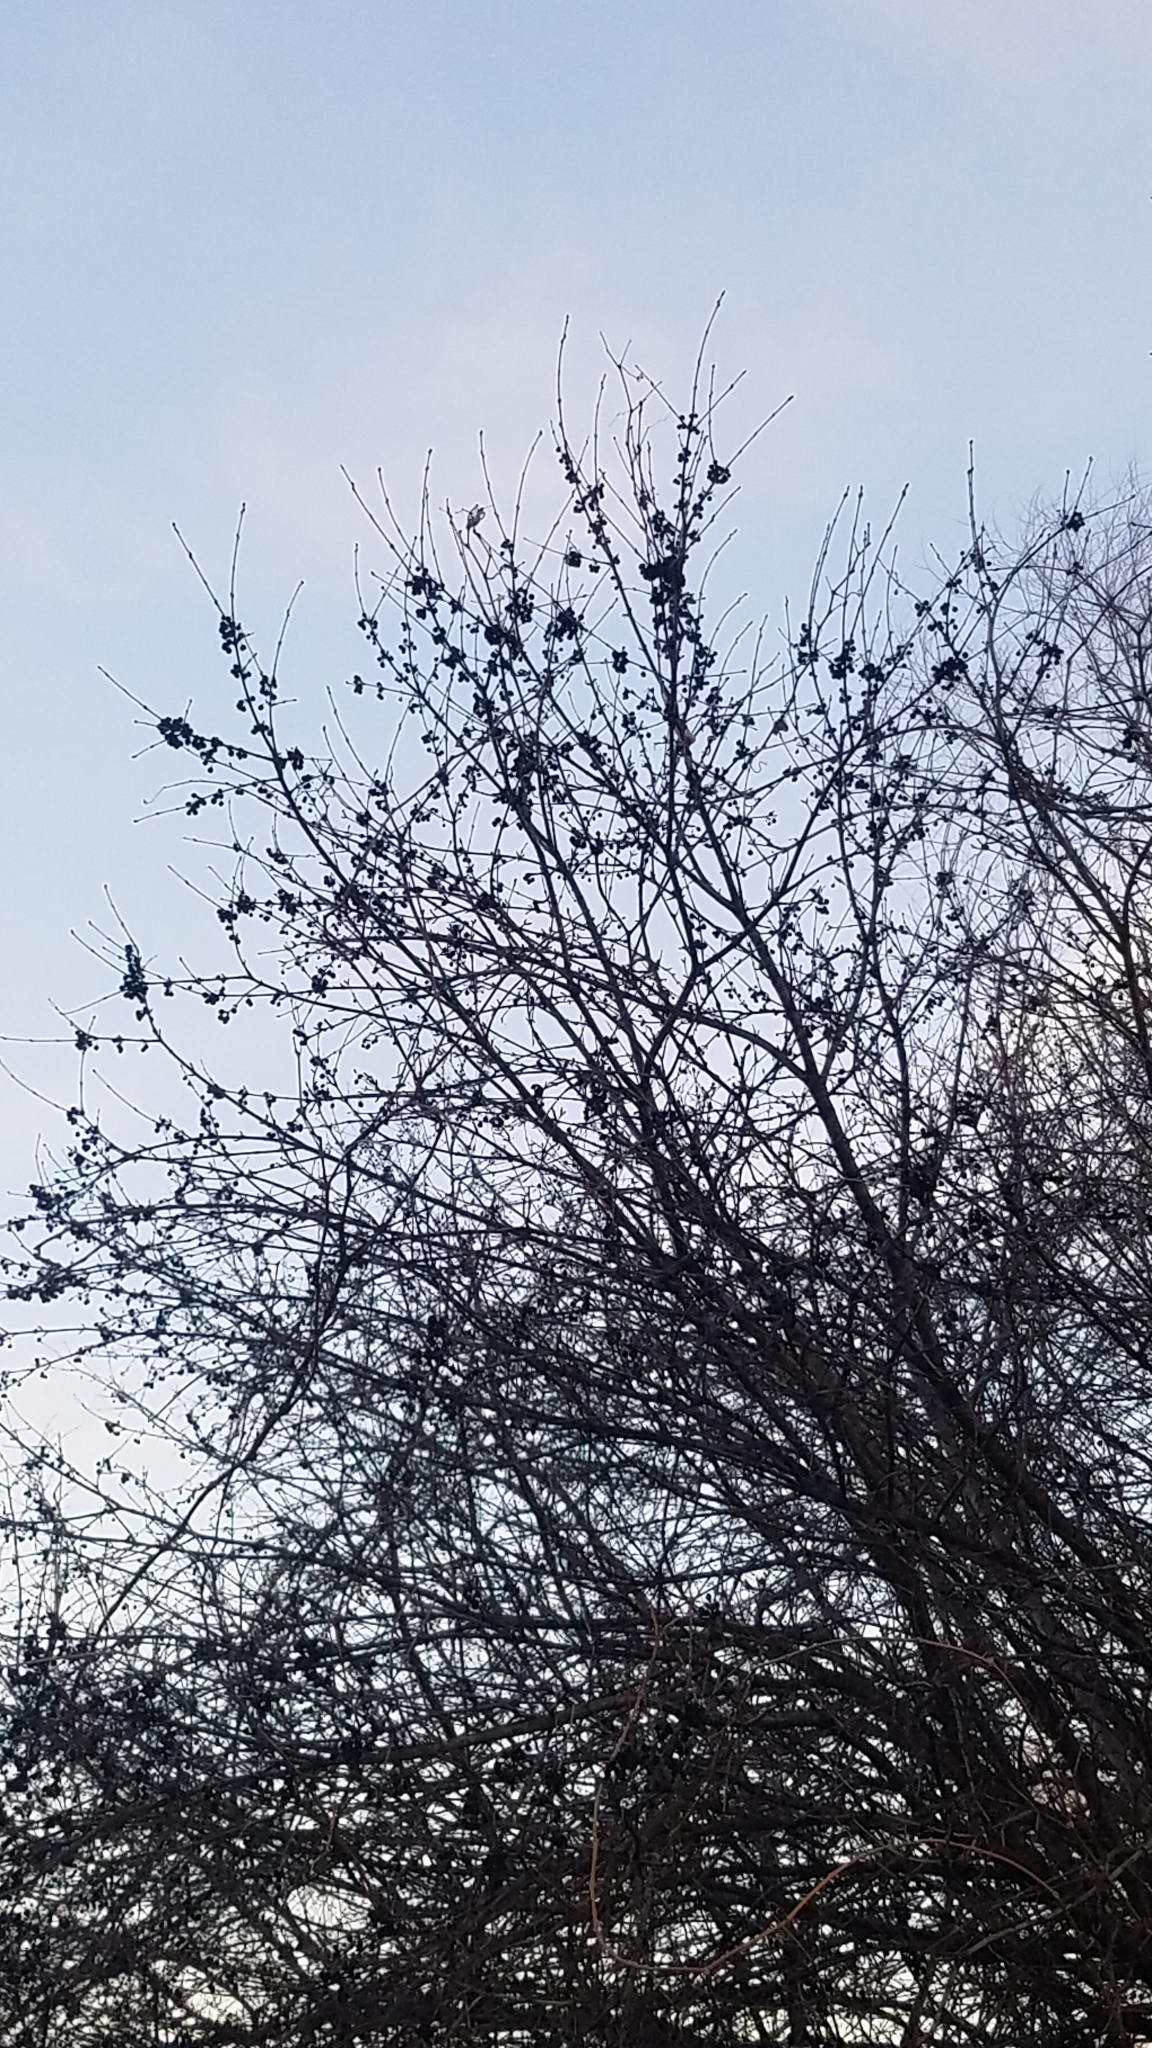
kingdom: Plantae
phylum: Tracheophyta
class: Magnoliopsida
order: Rosales
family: Rhamnaceae
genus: Rhamnus
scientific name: Rhamnus cathartica
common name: Common buckthorn
